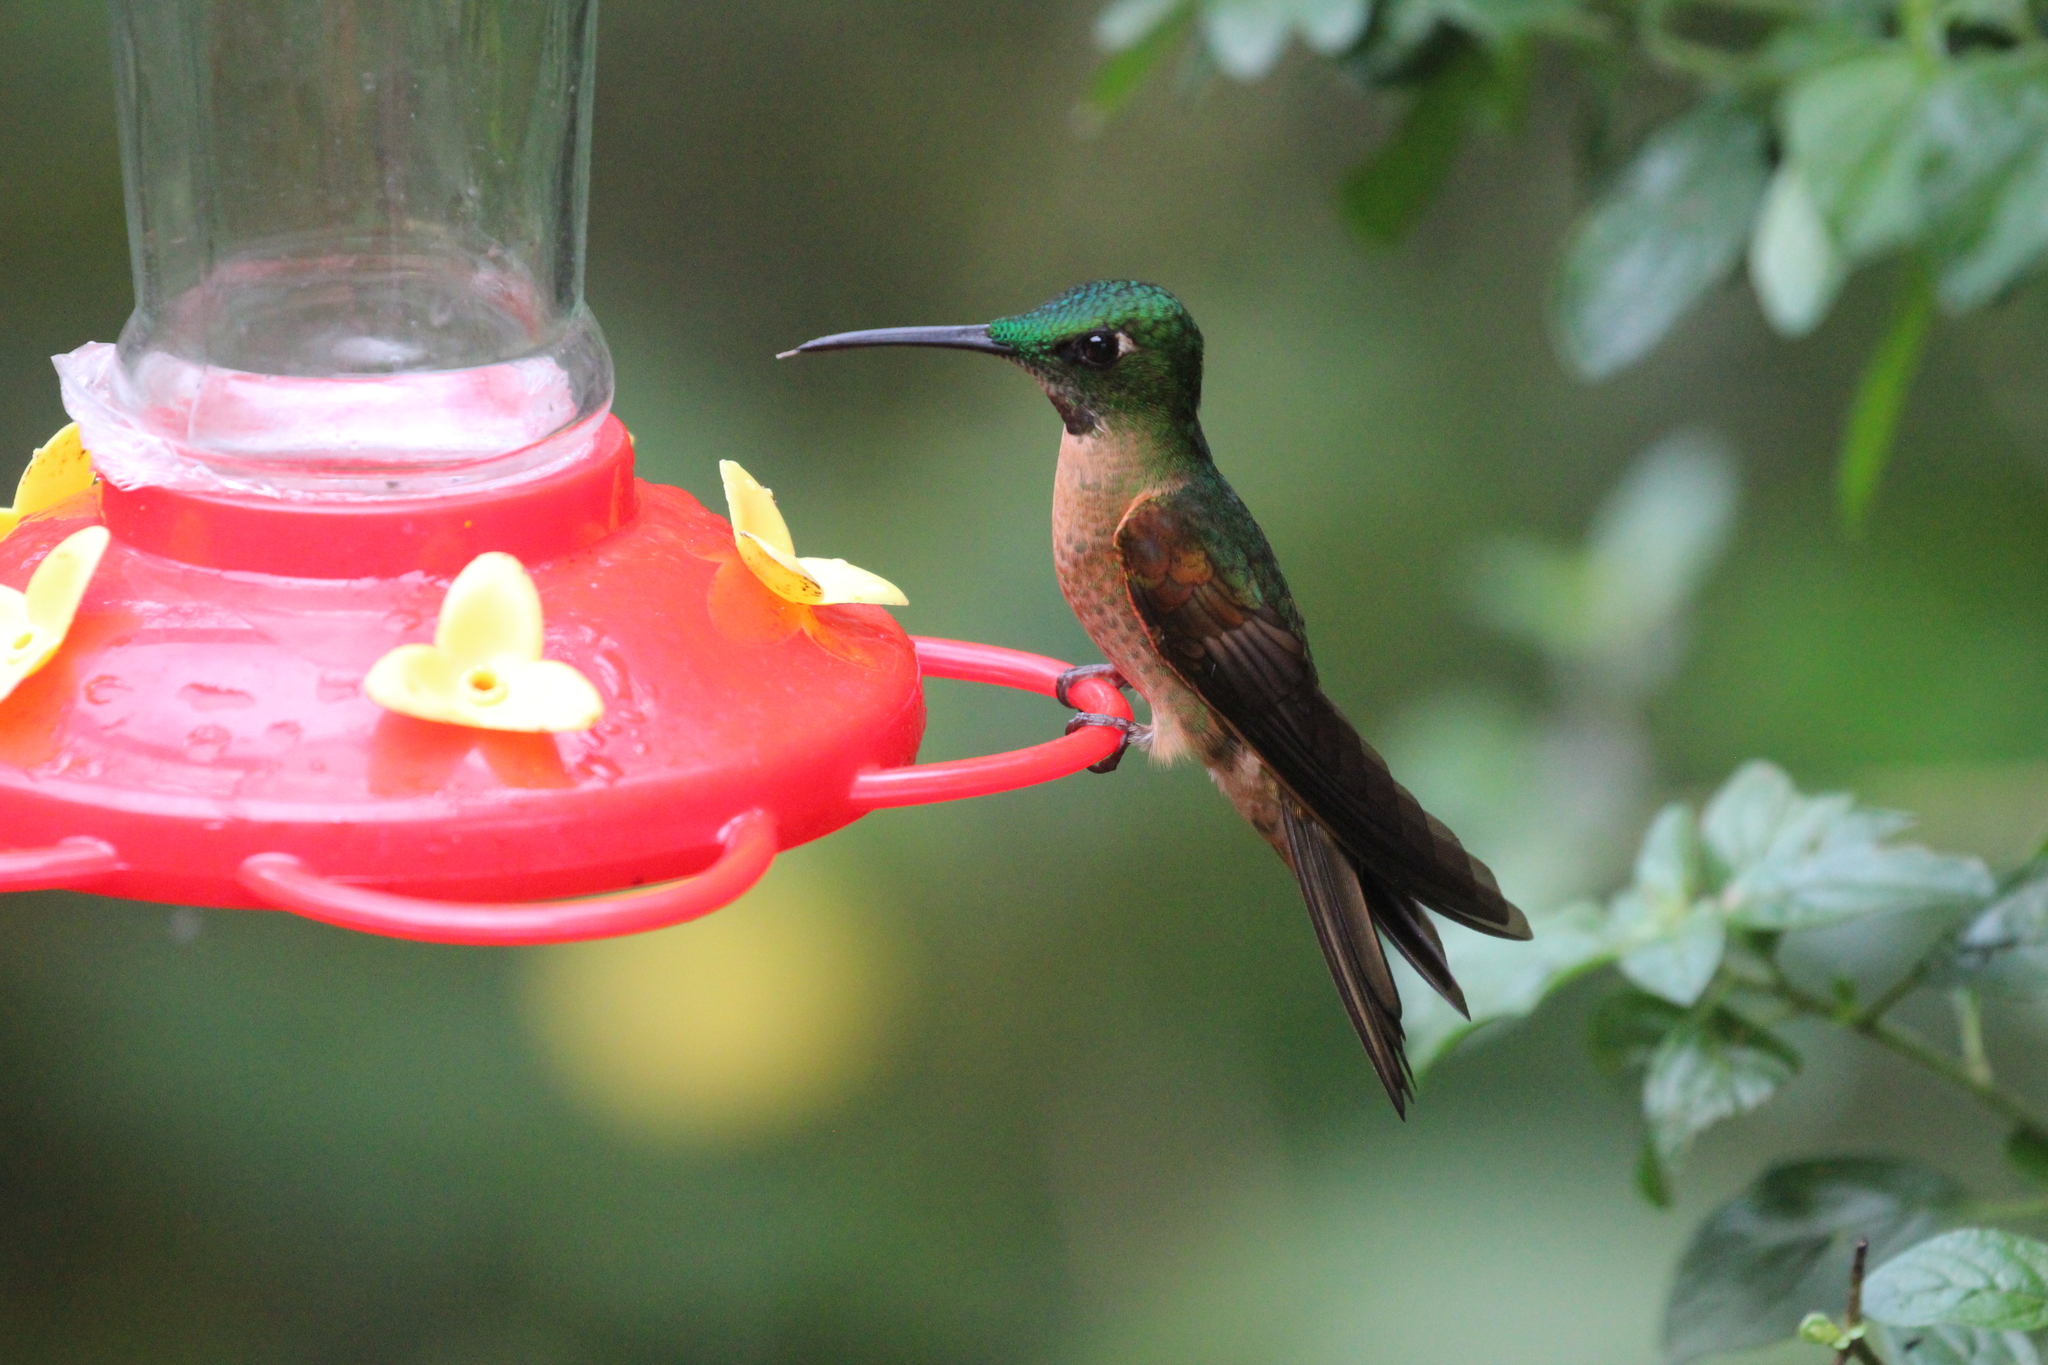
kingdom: Animalia
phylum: Chordata
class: Aves
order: Apodiformes
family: Trochilidae
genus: Heliodoxa
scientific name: Heliodoxa rubinoides
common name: Fawn-breasted brilliant
